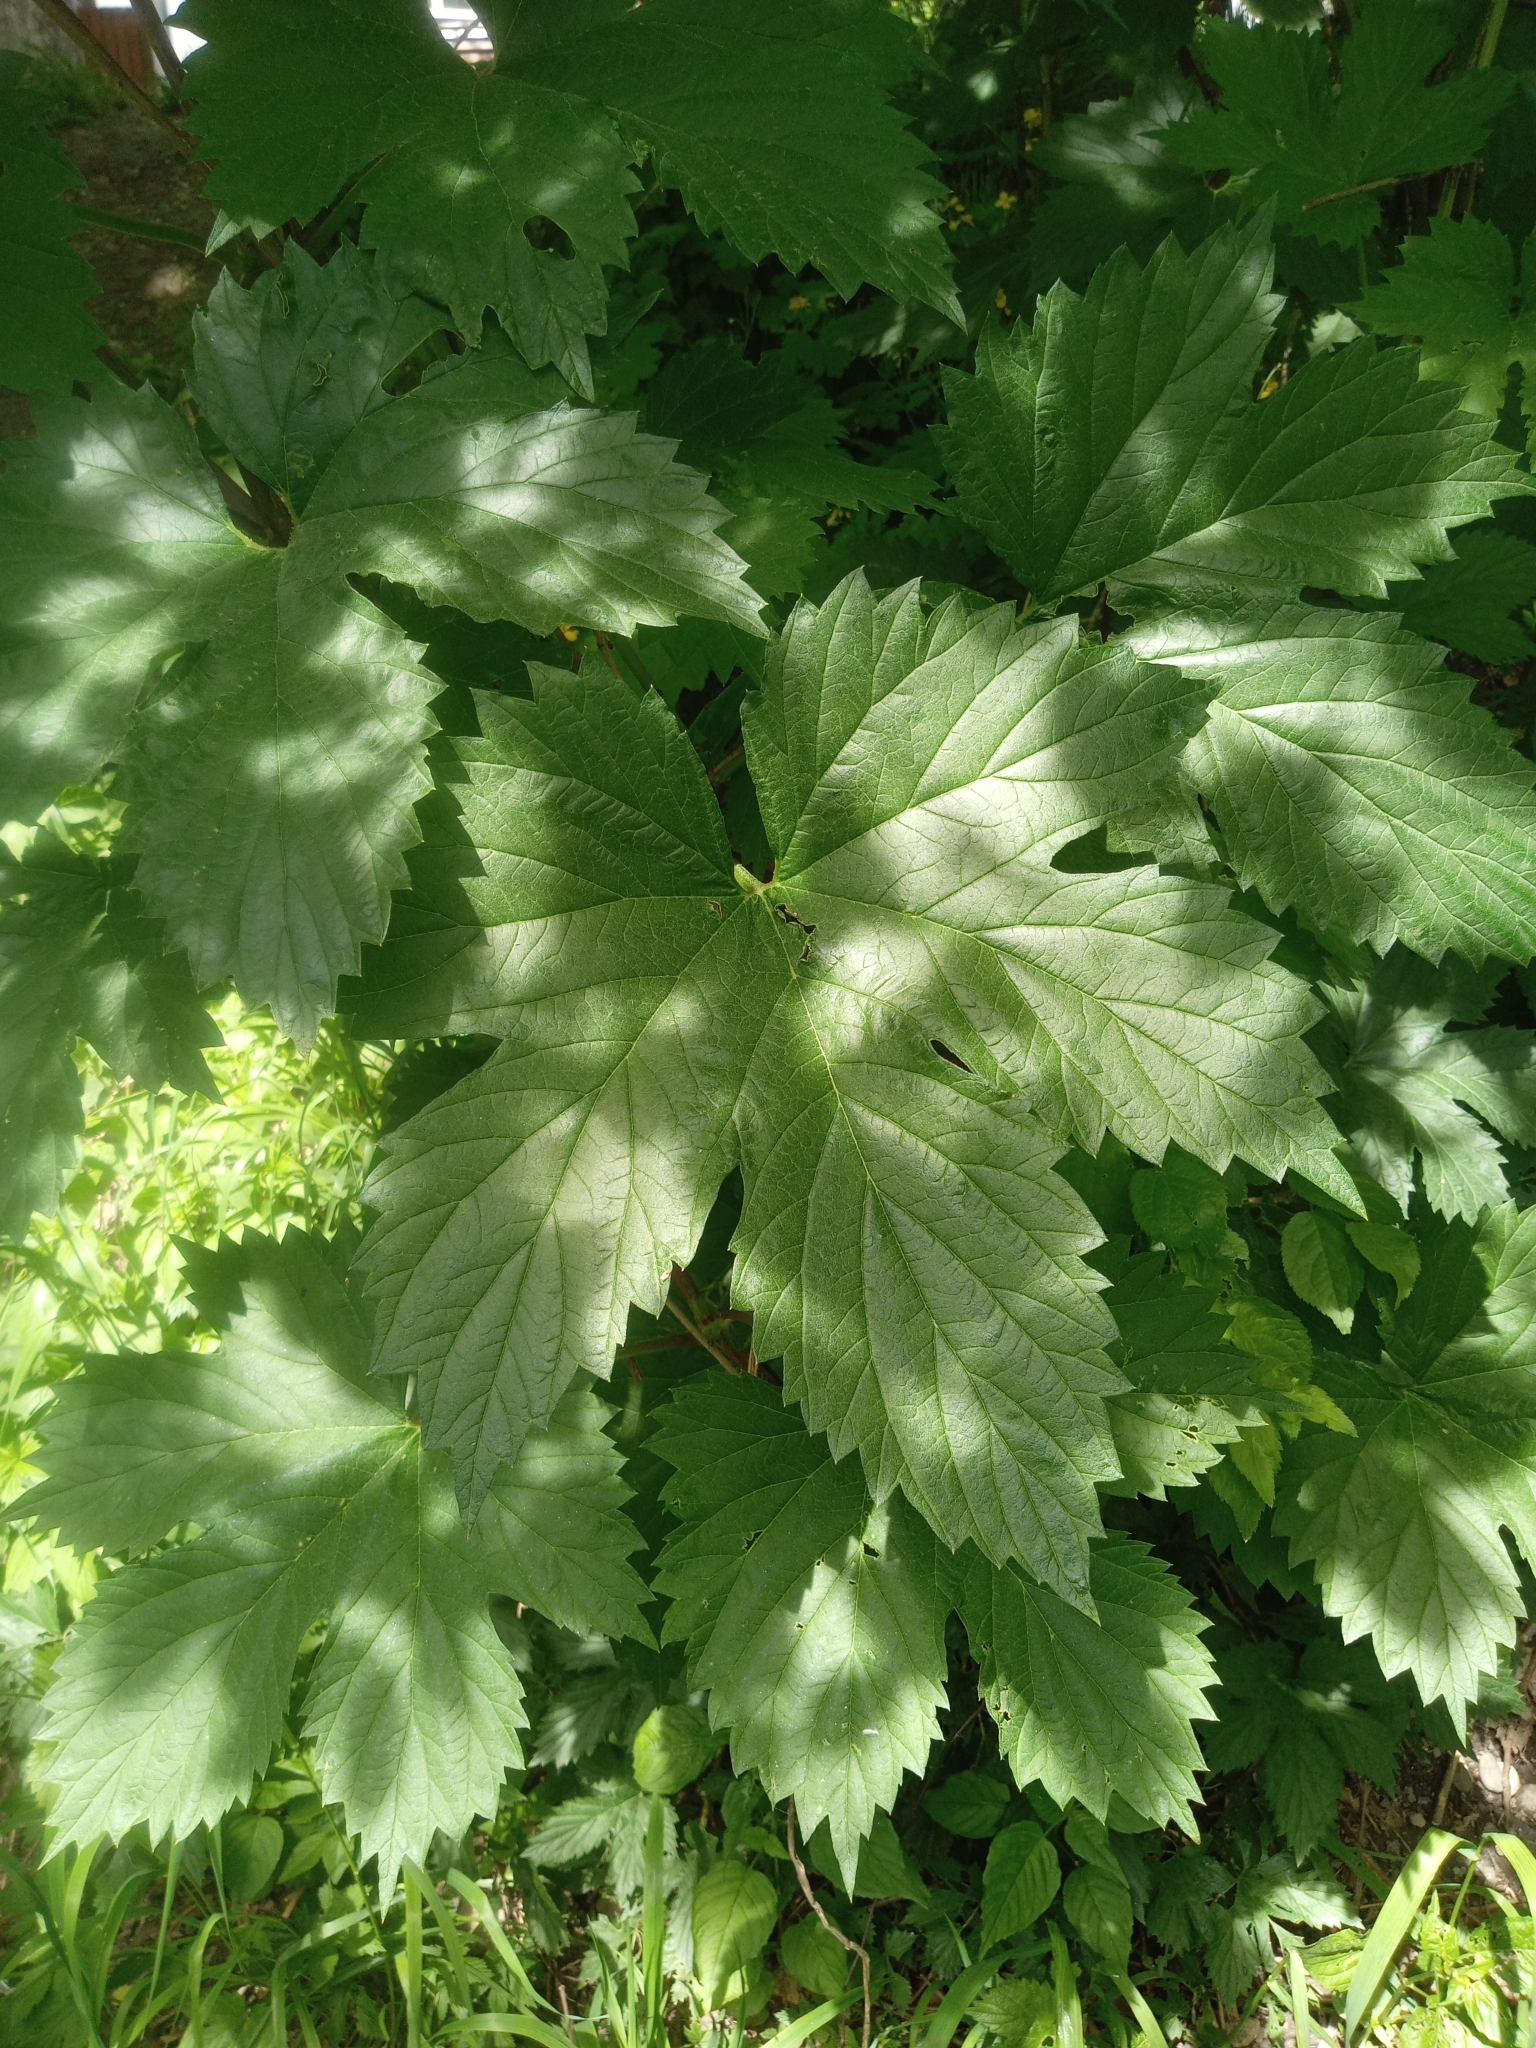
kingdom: Plantae
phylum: Tracheophyta
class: Magnoliopsida
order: Rosales
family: Cannabaceae
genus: Humulus
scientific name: Humulus lupulus
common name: Hop
